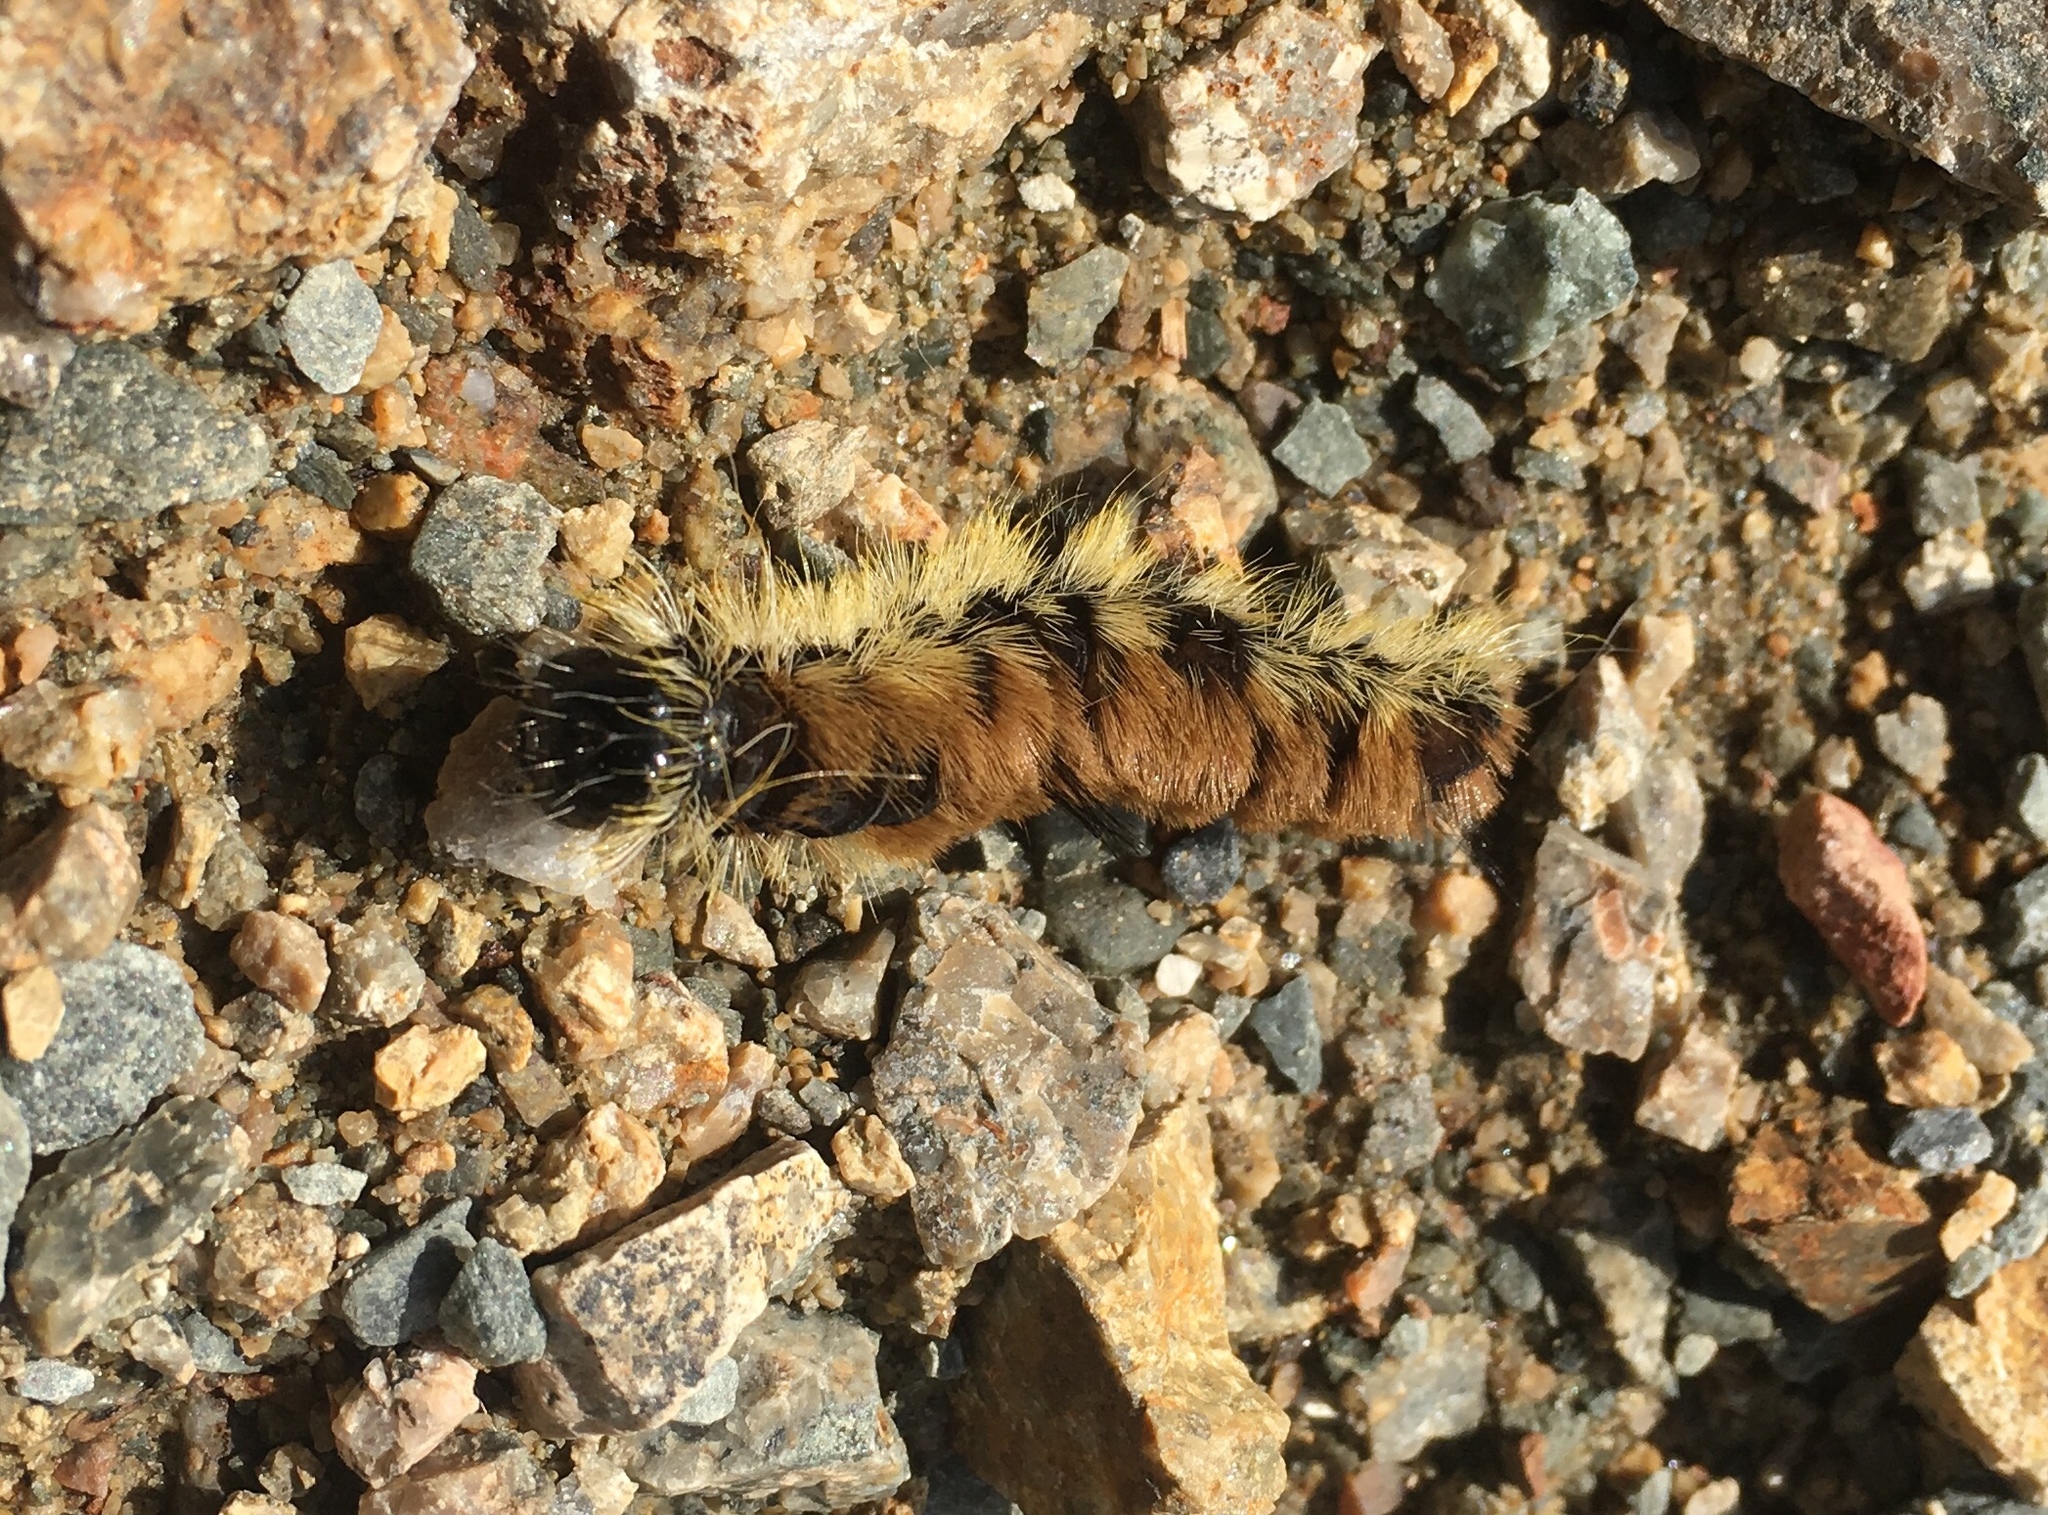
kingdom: Animalia
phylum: Arthropoda
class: Insecta
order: Lepidoptera
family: Noctuidae
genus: Acronicta
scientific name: Acronicta insita
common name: Large gray dagger
